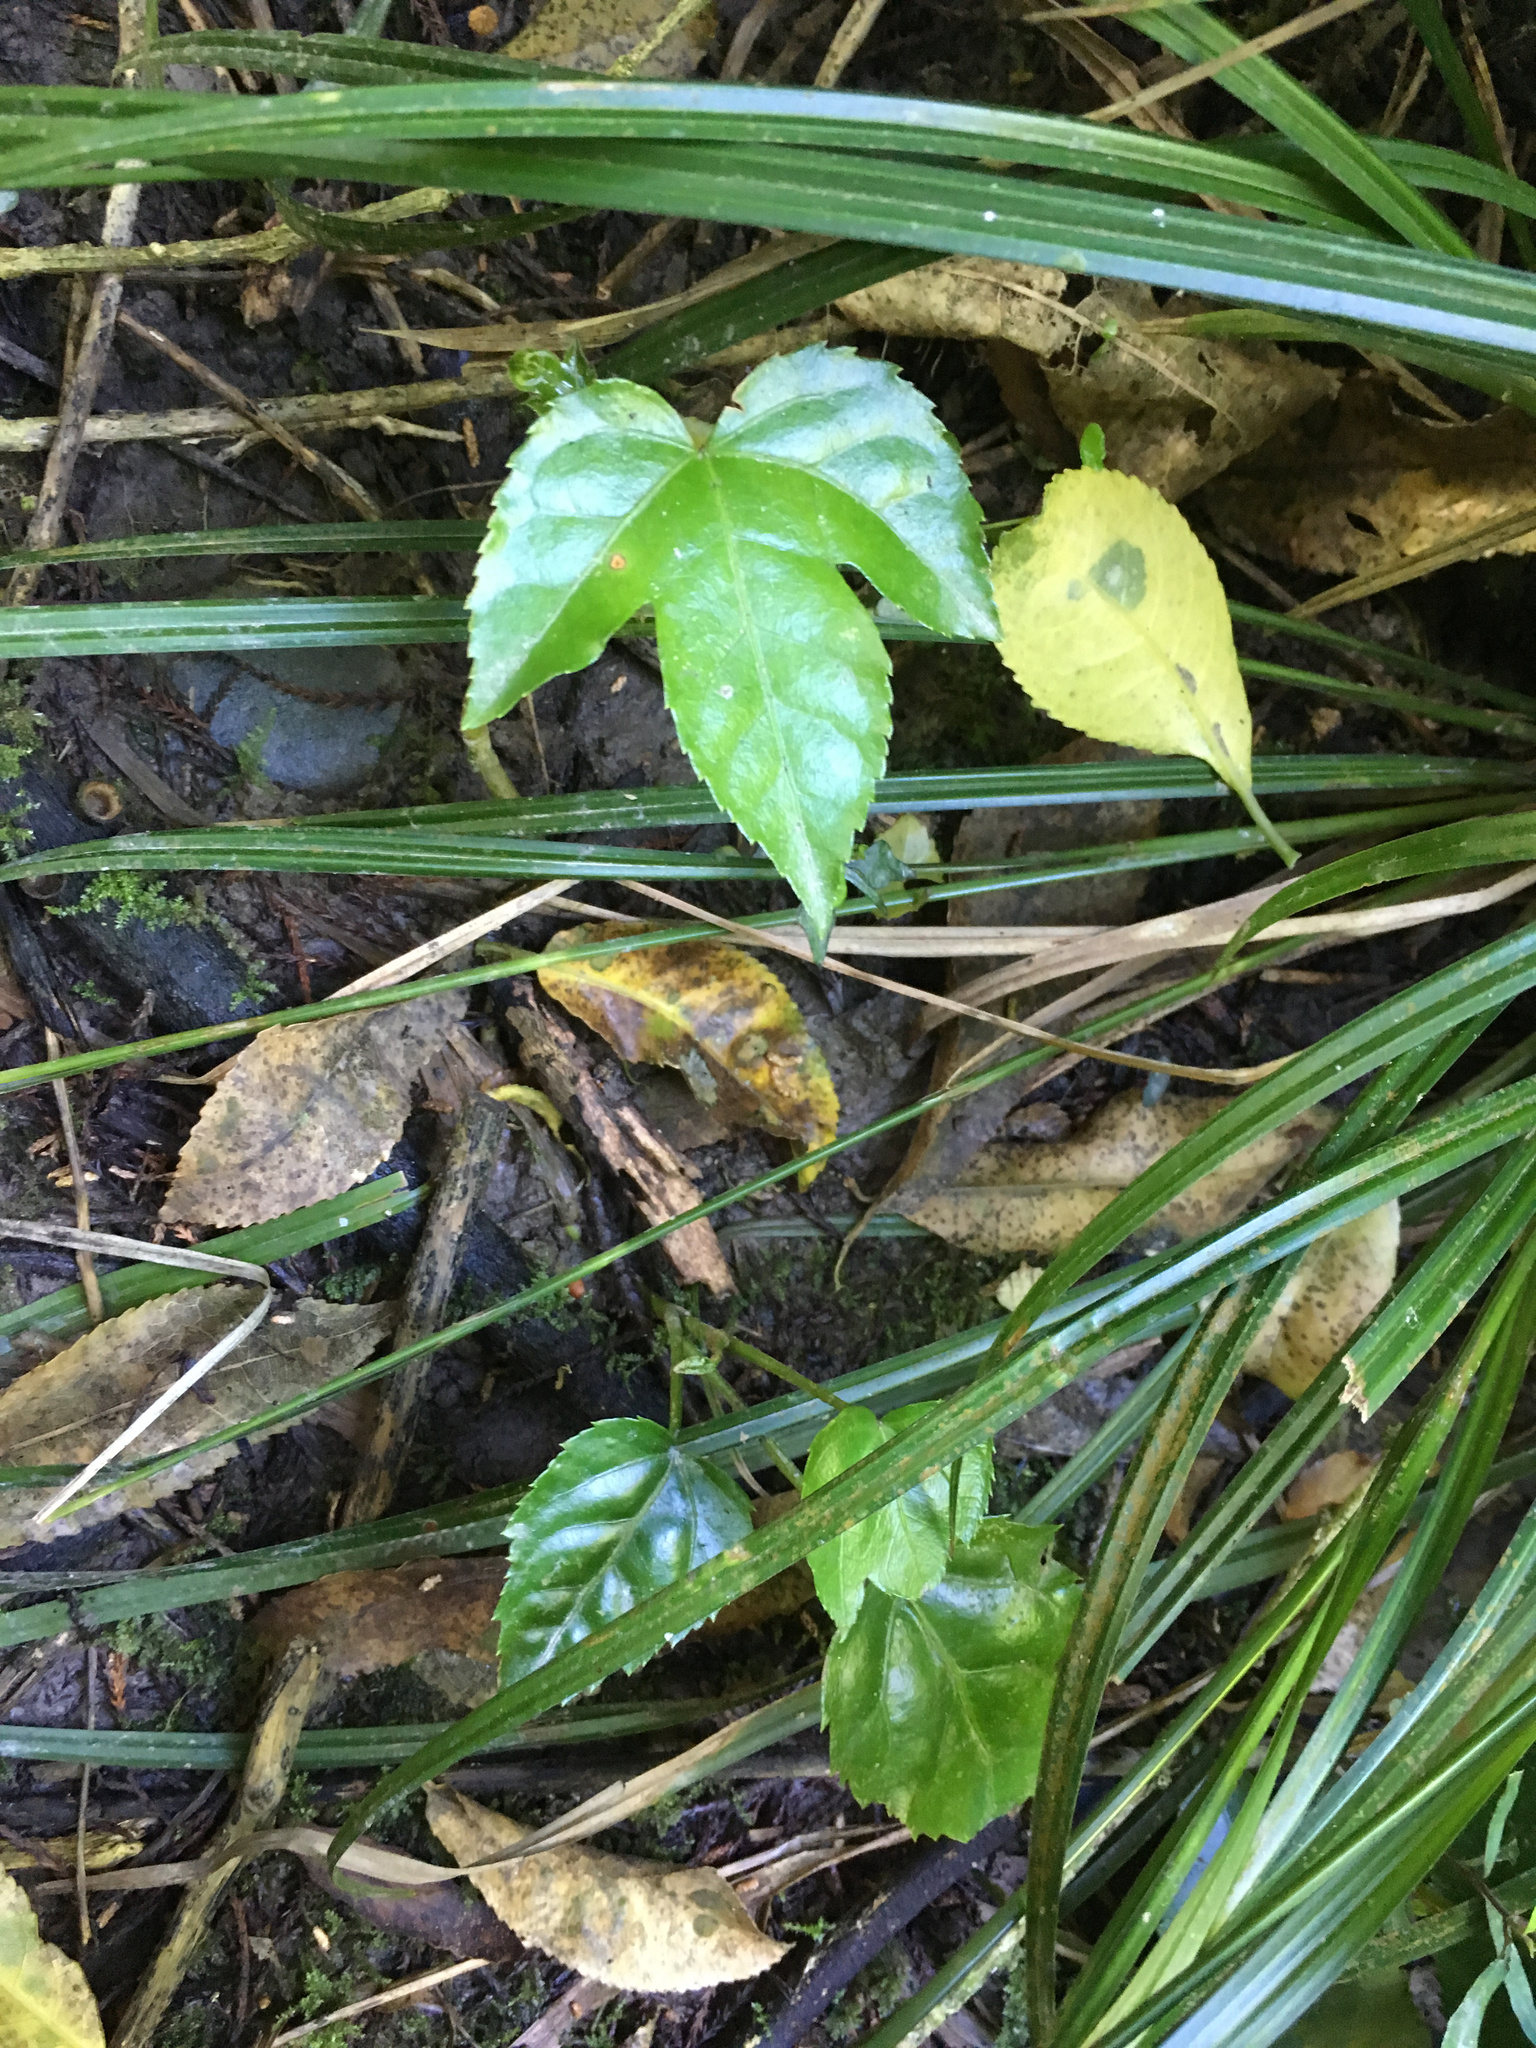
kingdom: Plantae
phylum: Tracheophyta
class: Magnoliopsida
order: Apiales
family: Araliaceae
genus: Fatsia
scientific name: Fatsia japonica
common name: Fatsia
